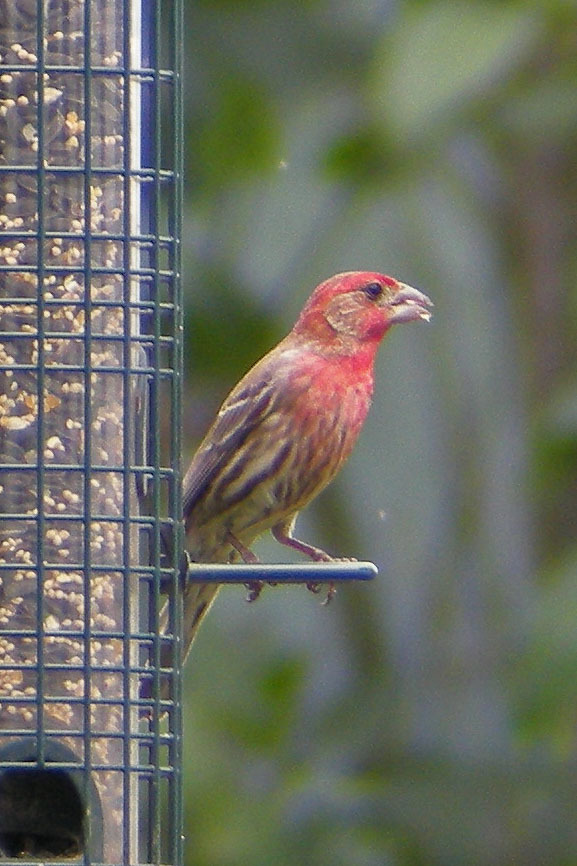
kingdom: Animalia
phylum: Chordata
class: Aves
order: Passeriformes
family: Fringillidae
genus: Haemorhous
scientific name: Haemorhous mexicanus
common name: House finch
